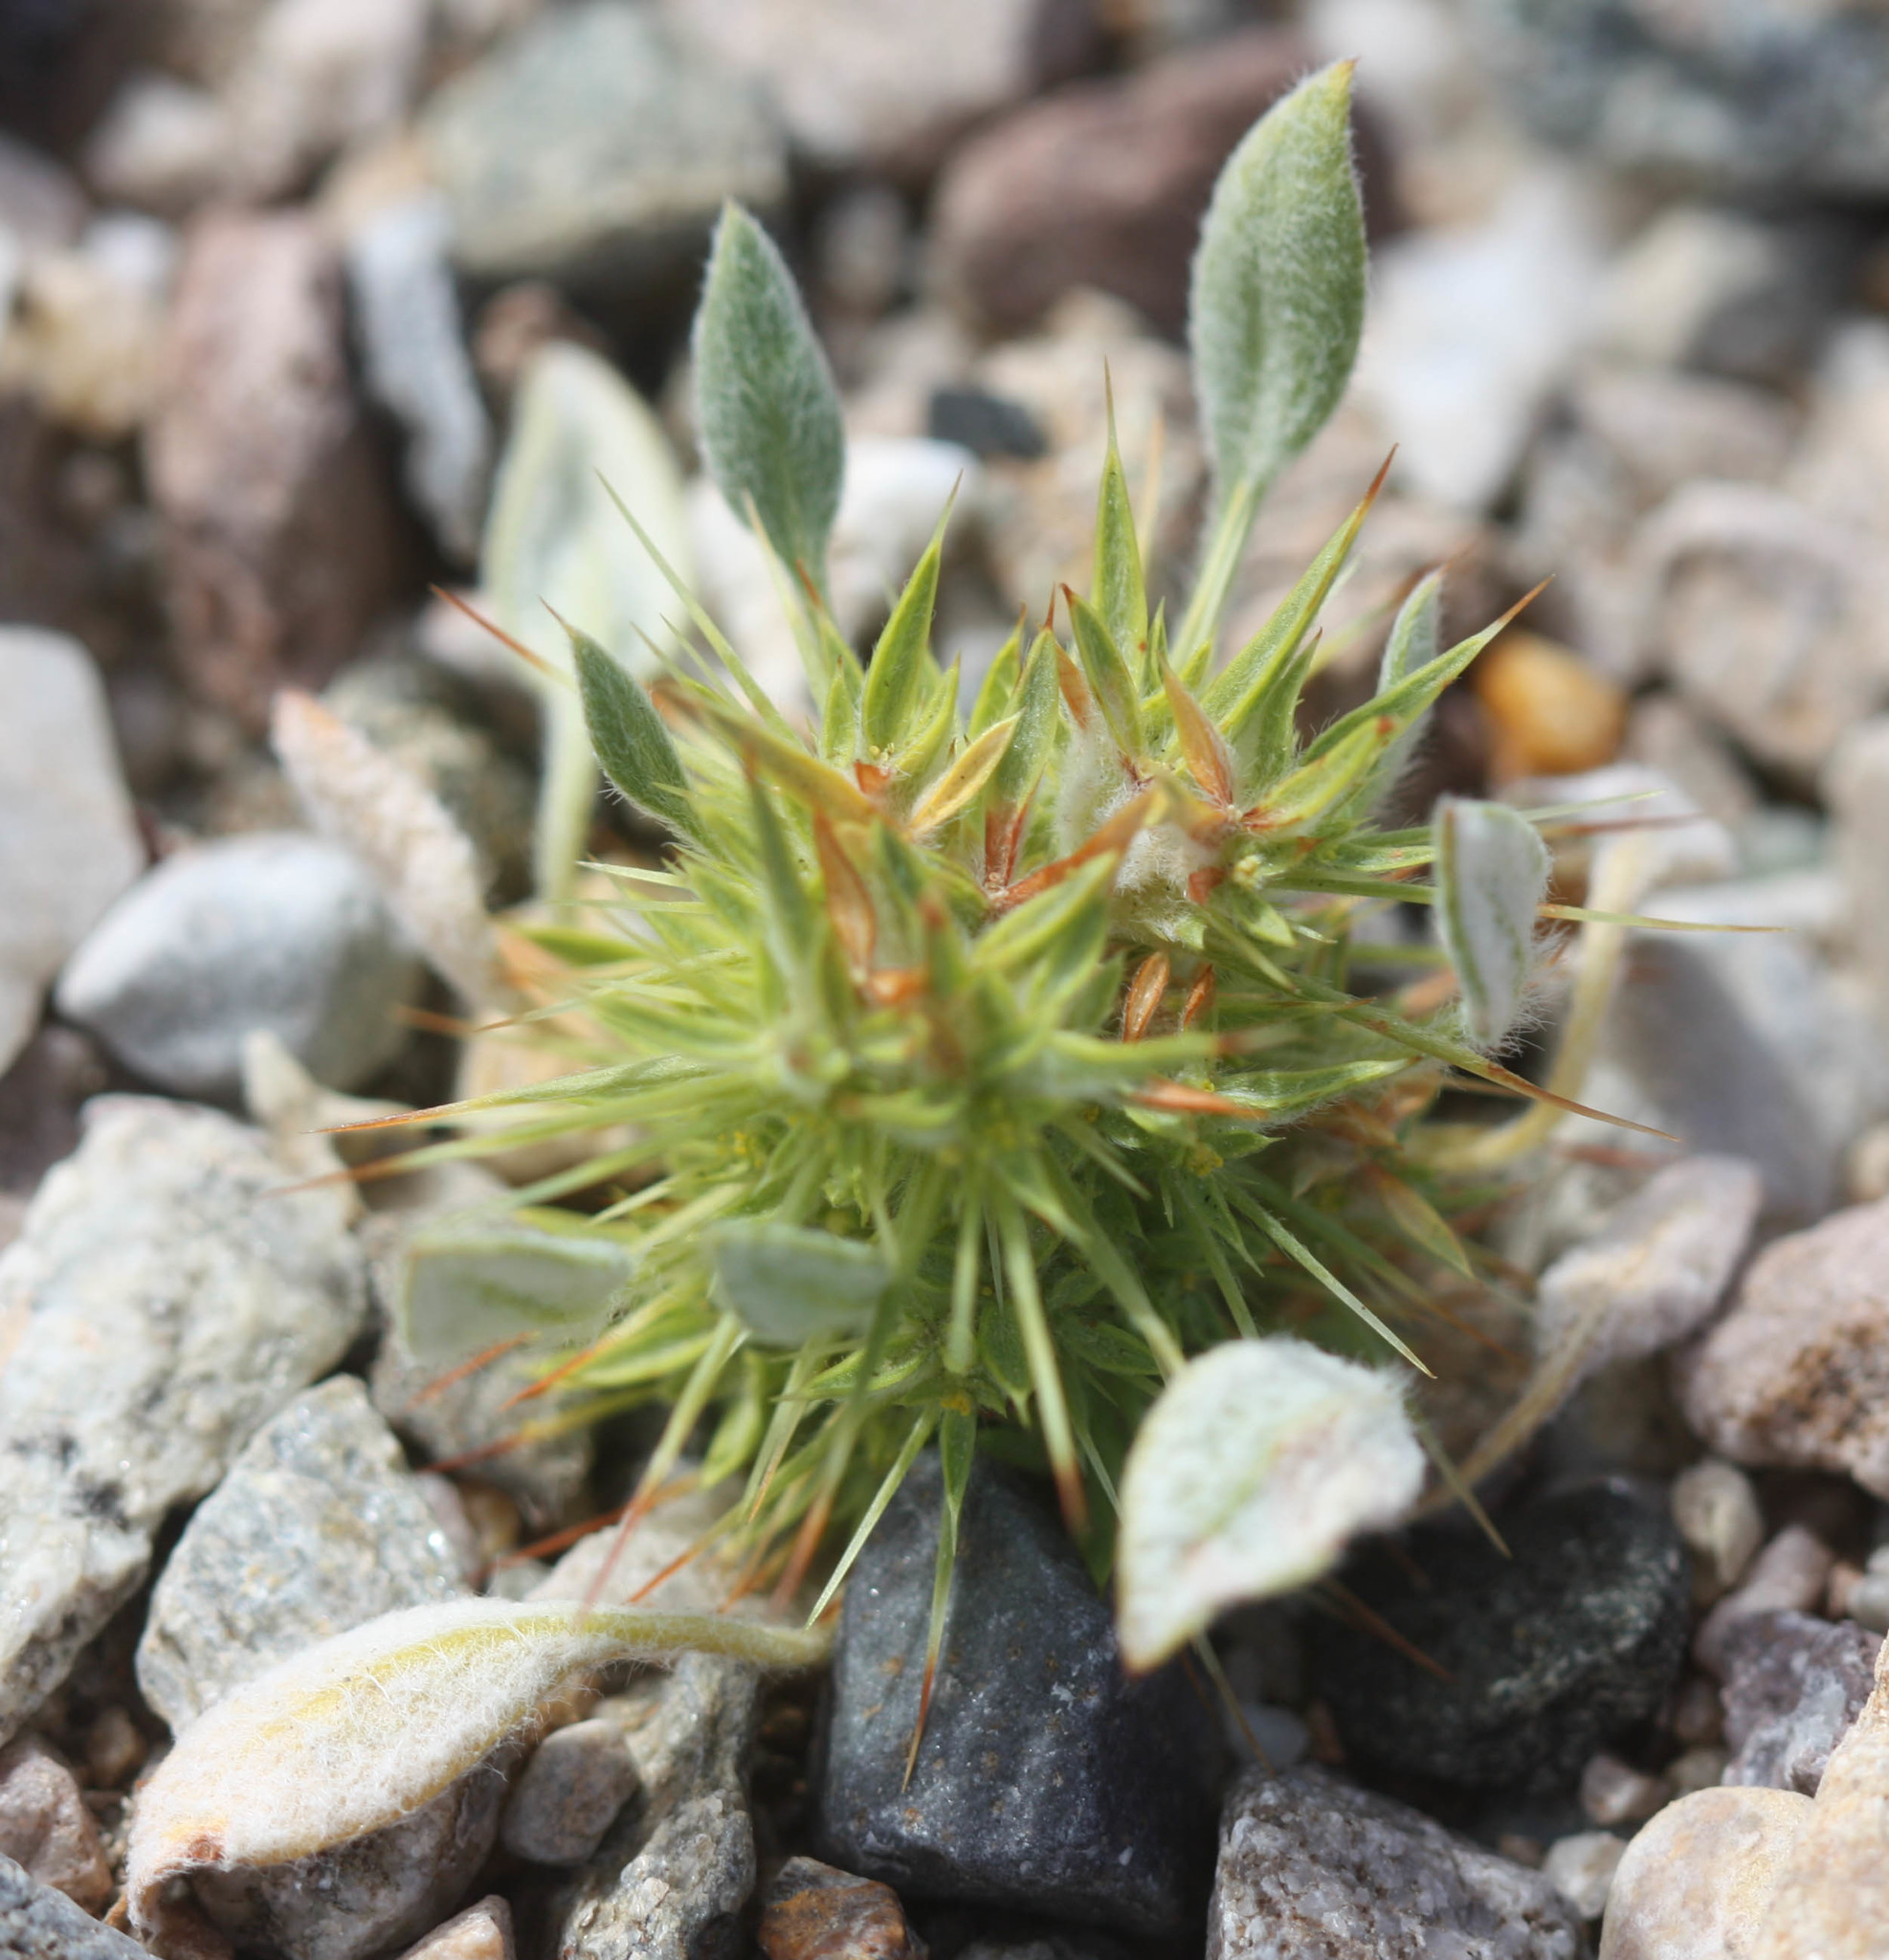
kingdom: Plantae
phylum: Tracheophyta
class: Magnoliopsida
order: Caryophyllales
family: Polygonaceae
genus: Chorizanthe
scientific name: Chorizanthe rigida
